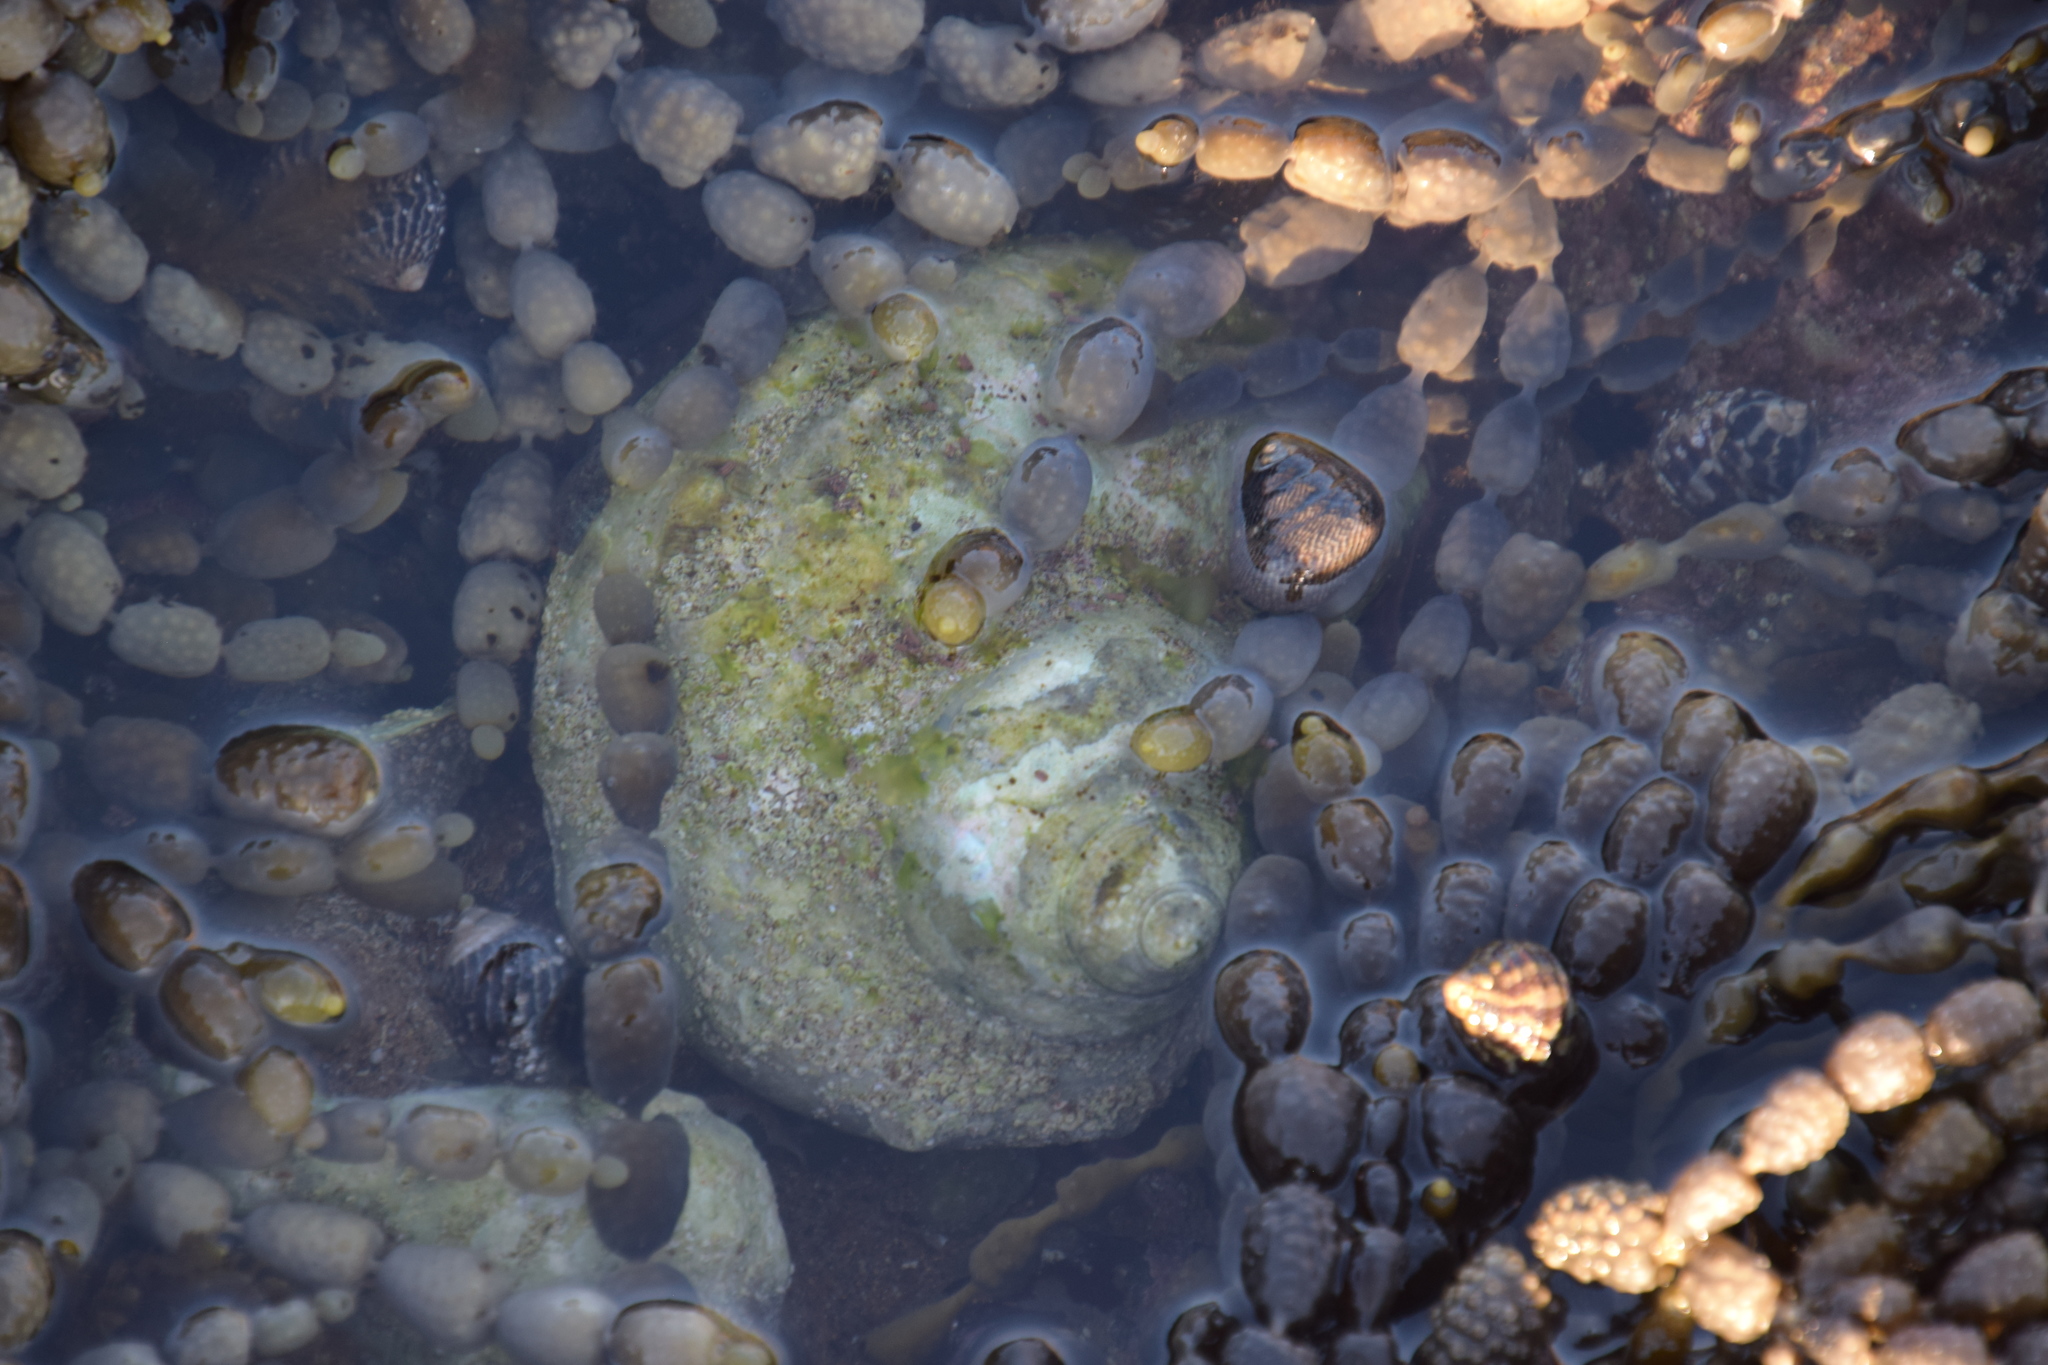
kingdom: Animalia
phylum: Mollusca
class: Gastropoda
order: Trochida
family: Turbinidae
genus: Turbo
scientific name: Turbo militaris
